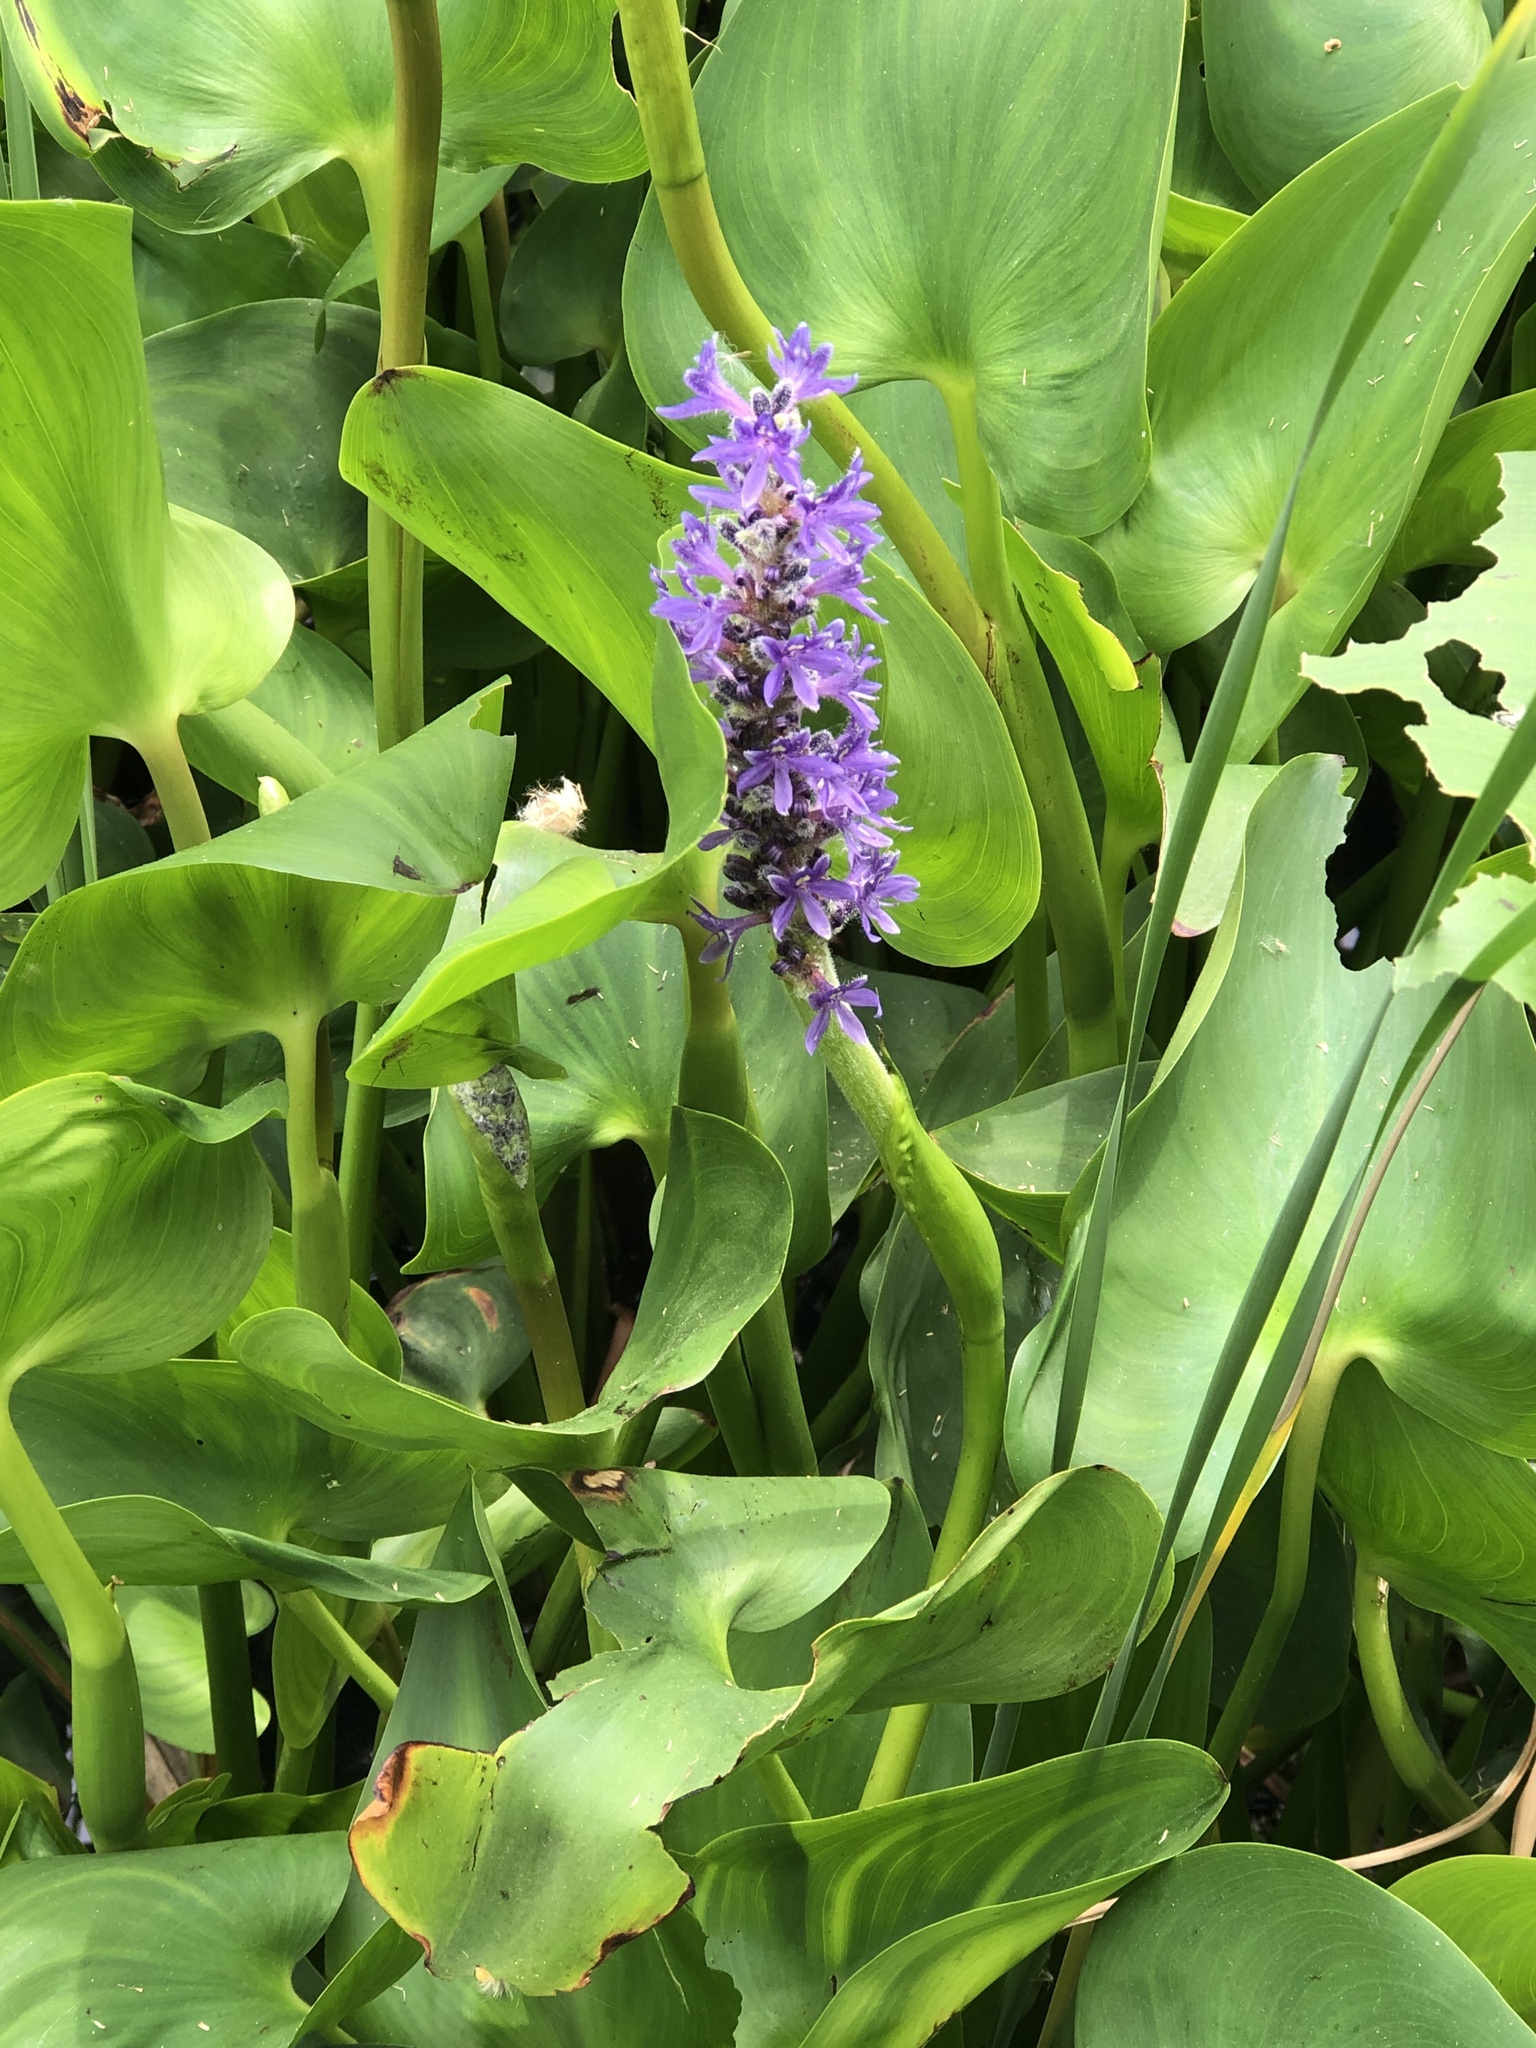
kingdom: Plantae
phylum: Tracheophyta
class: Liliopsida
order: Commelinales
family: Pontederiaceae
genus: Pontederia
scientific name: Pontederia cordata
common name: Pickerelweed
